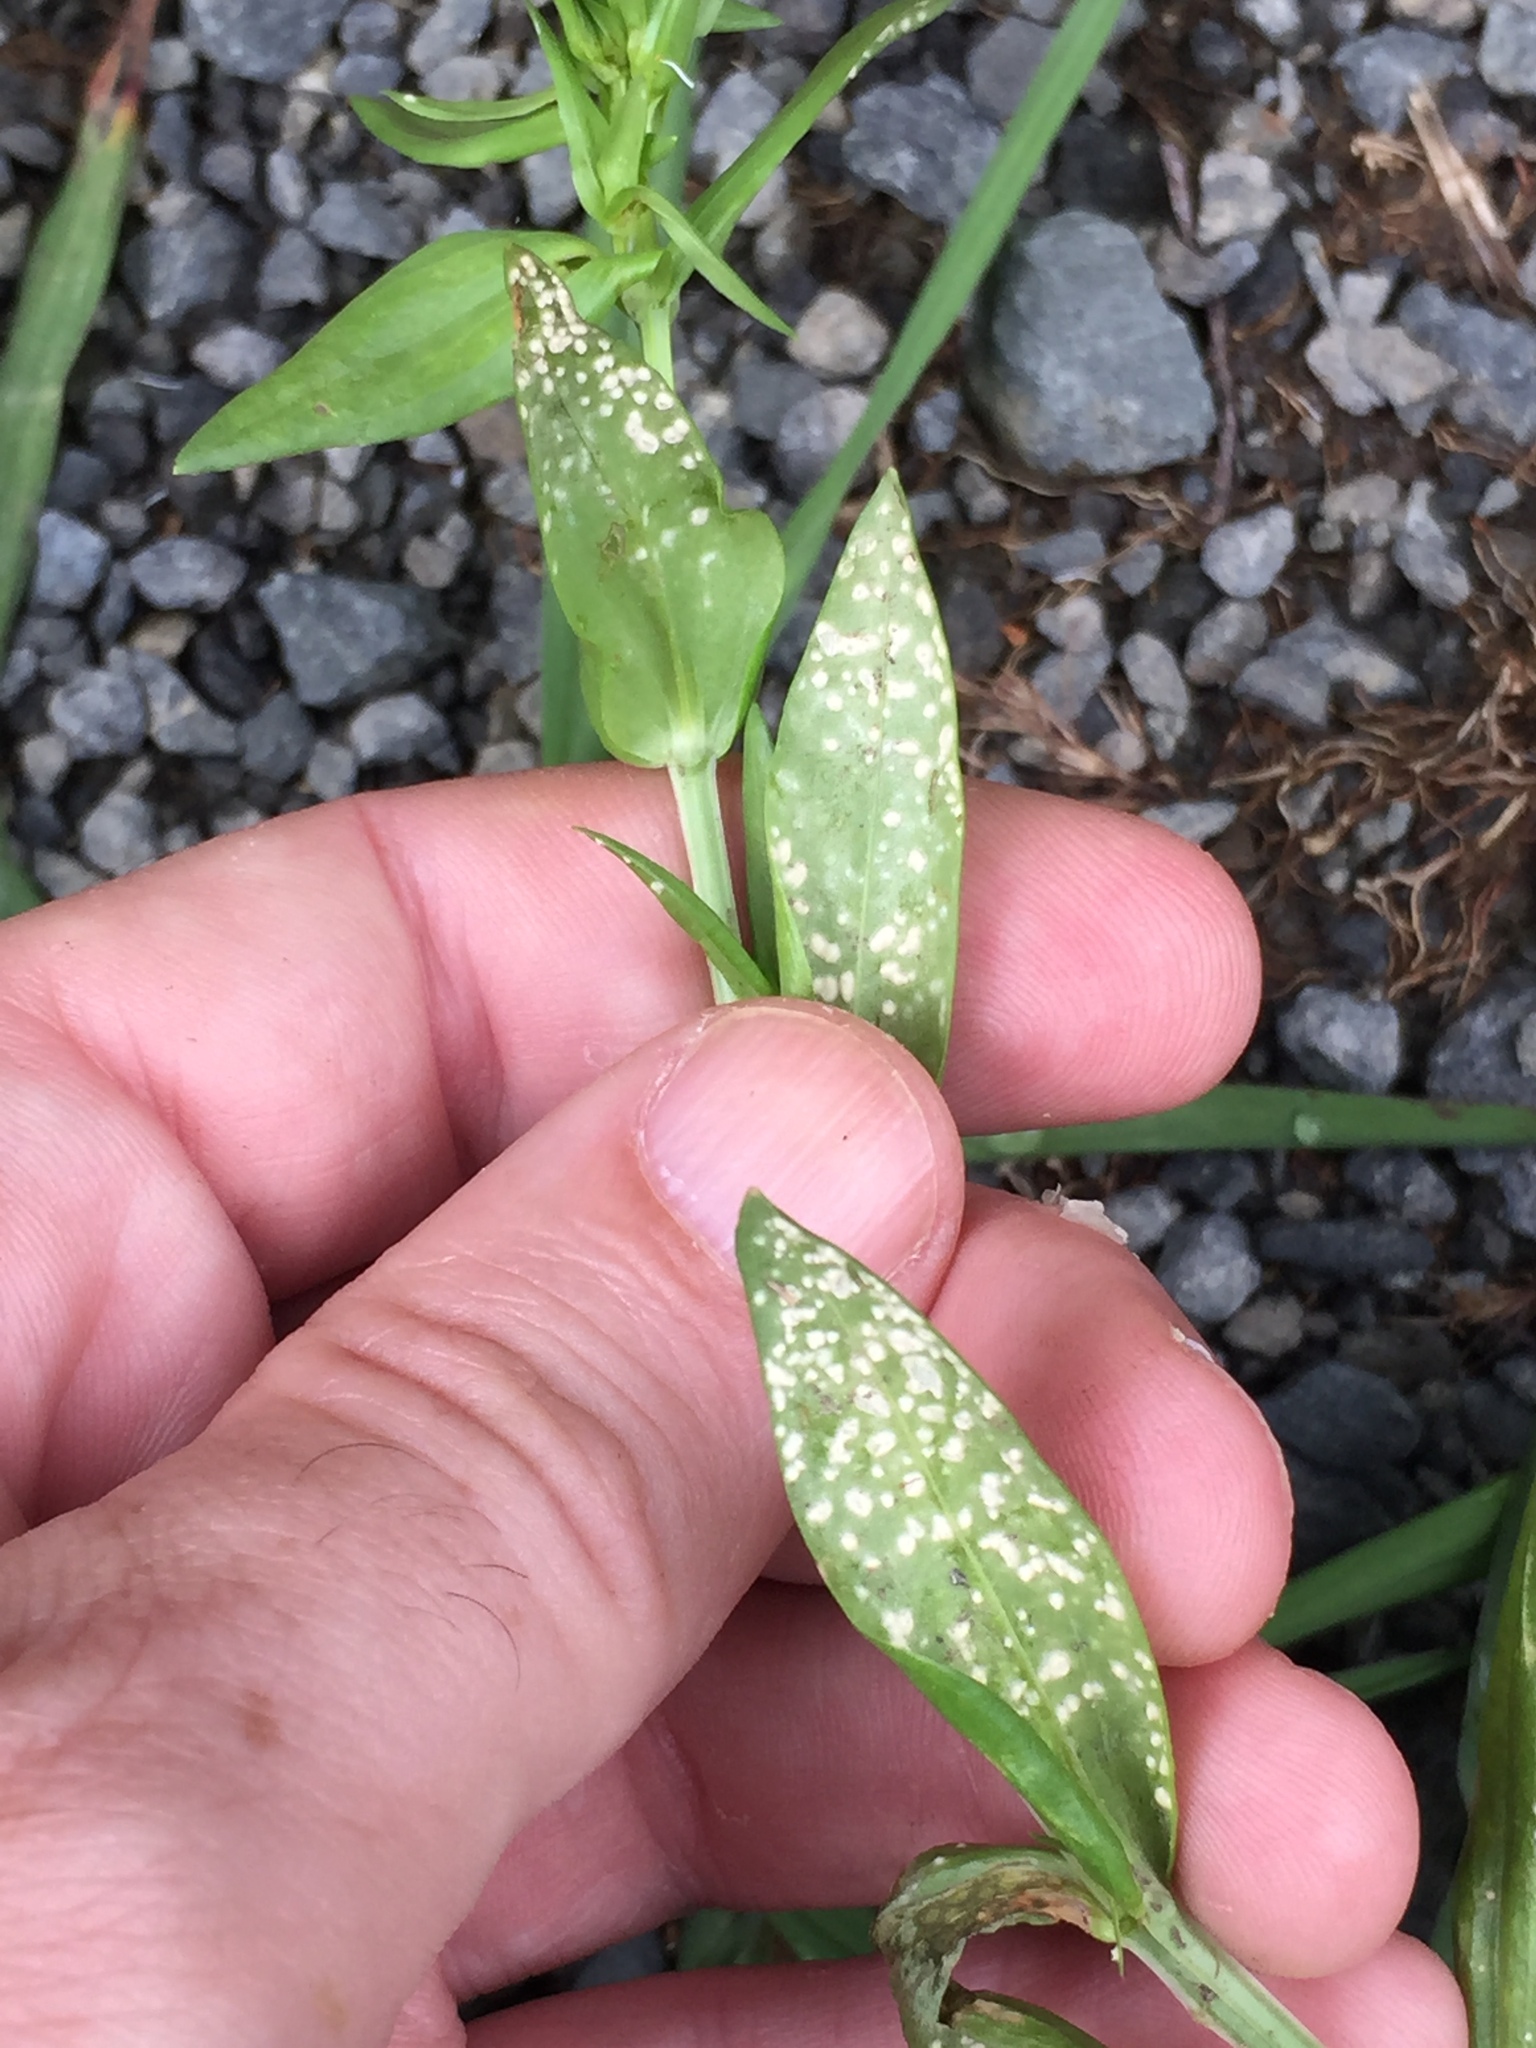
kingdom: Chromista
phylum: Oomycota
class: Peronosporea
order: Albuginales
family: Albuginaceae
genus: Pustula
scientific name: Pustula centaurii
